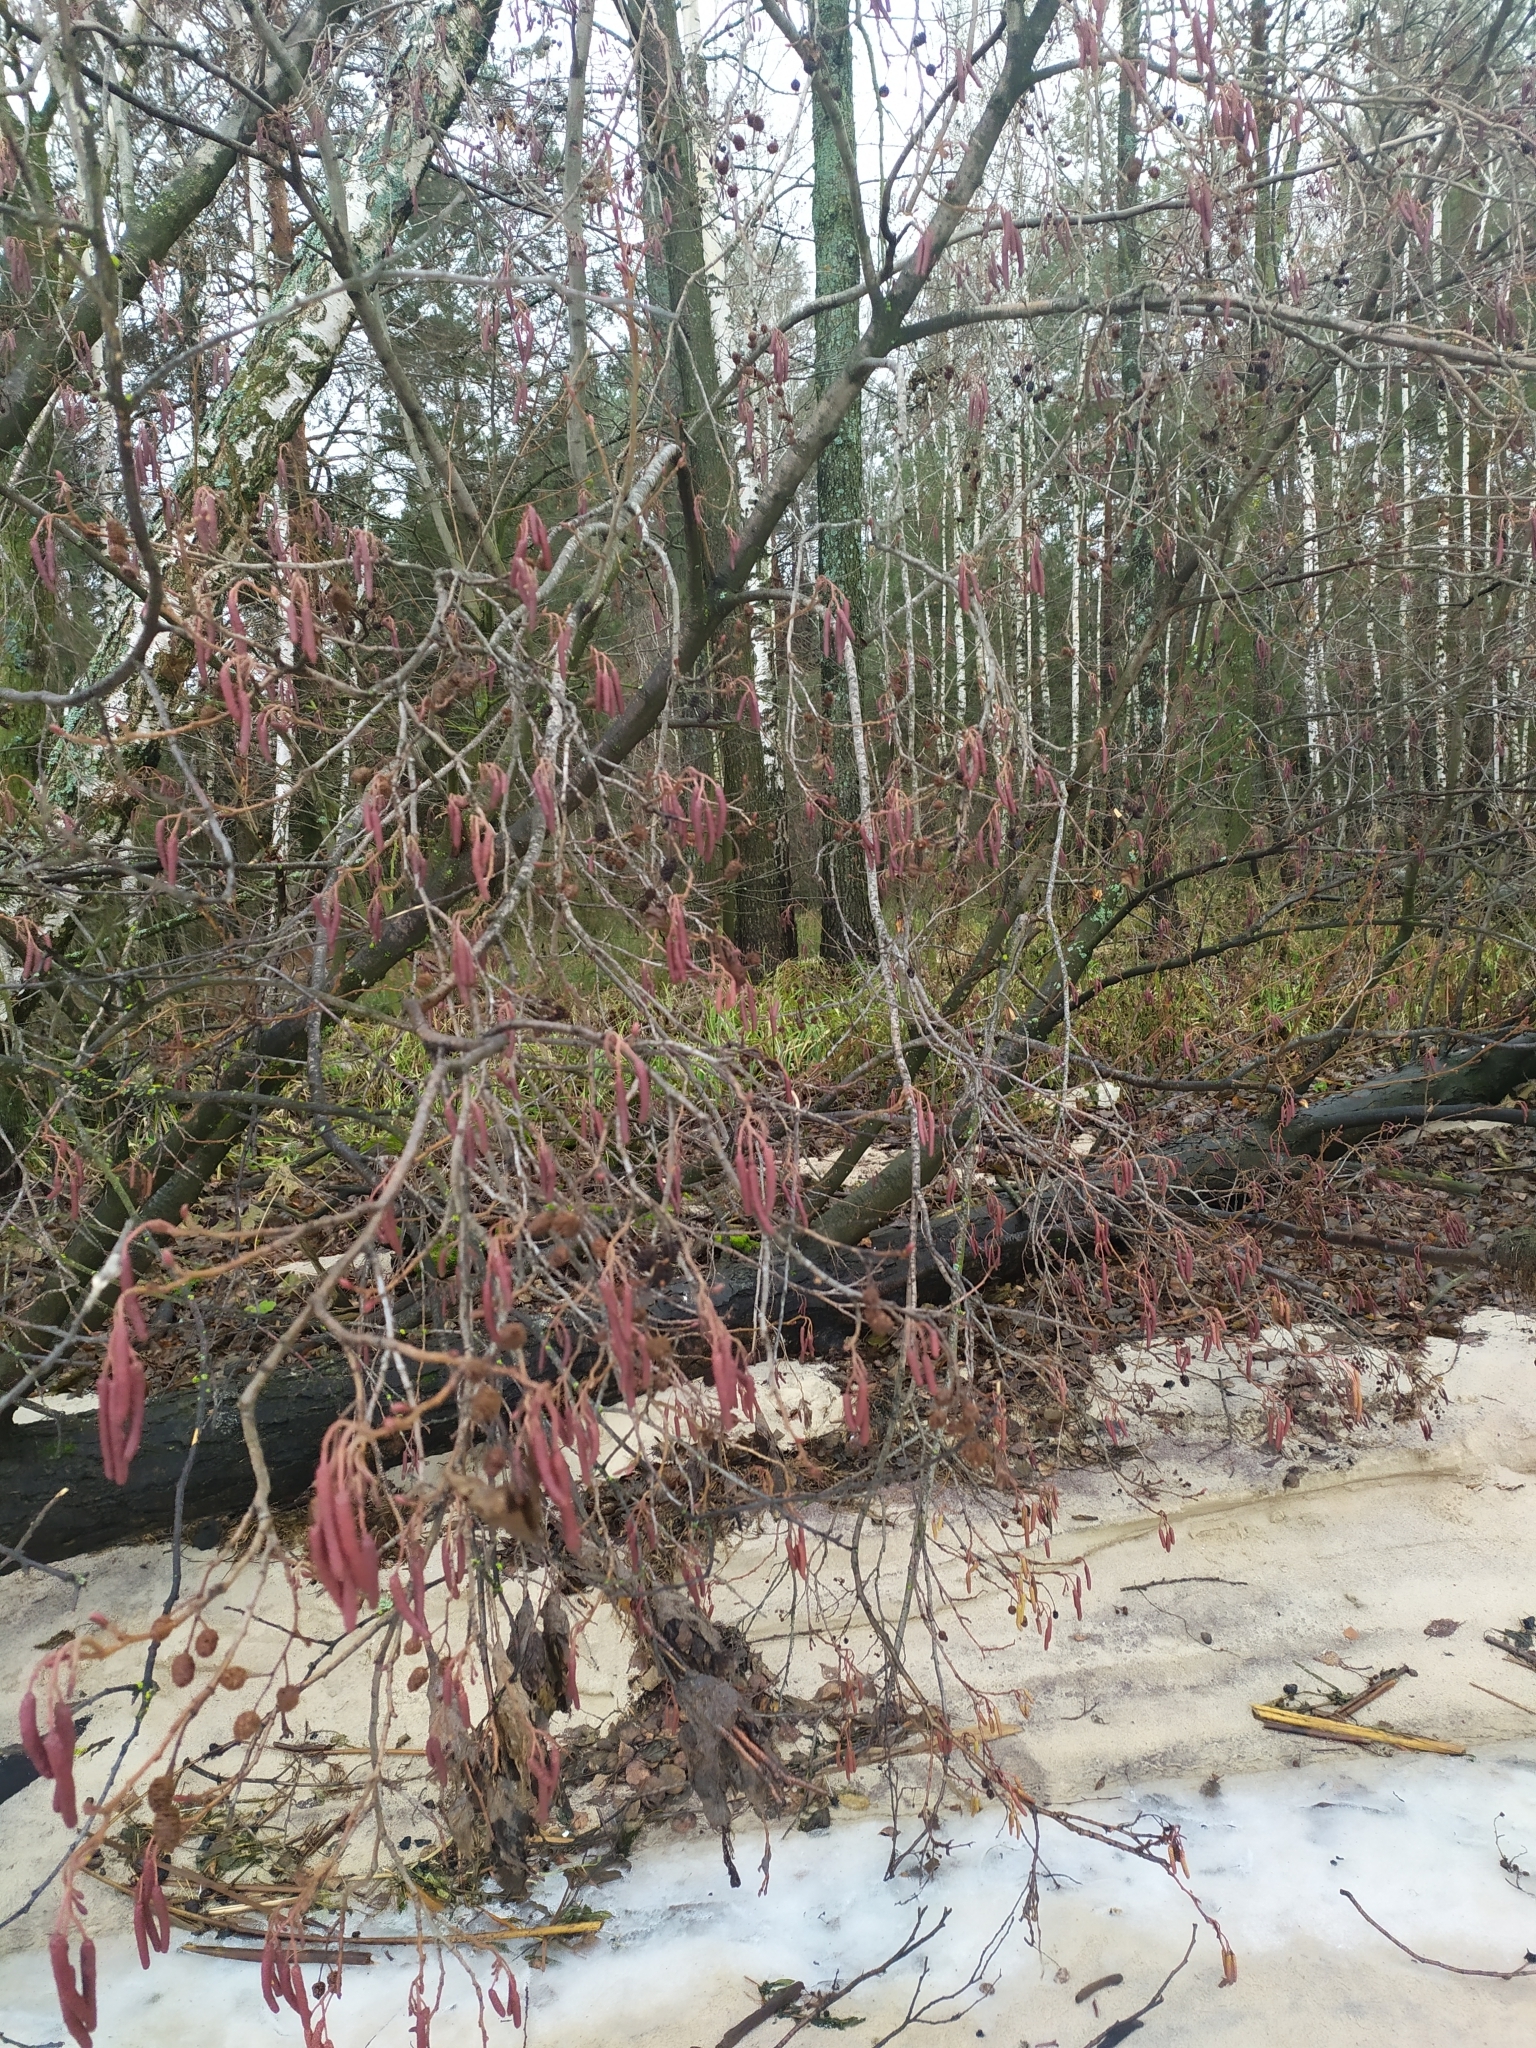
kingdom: Plantae
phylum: Tracheophyta
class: Magnoliopsida
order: Fagales
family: Betulaceae
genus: Alnus
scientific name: Alnus glutinosa
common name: Black alder
